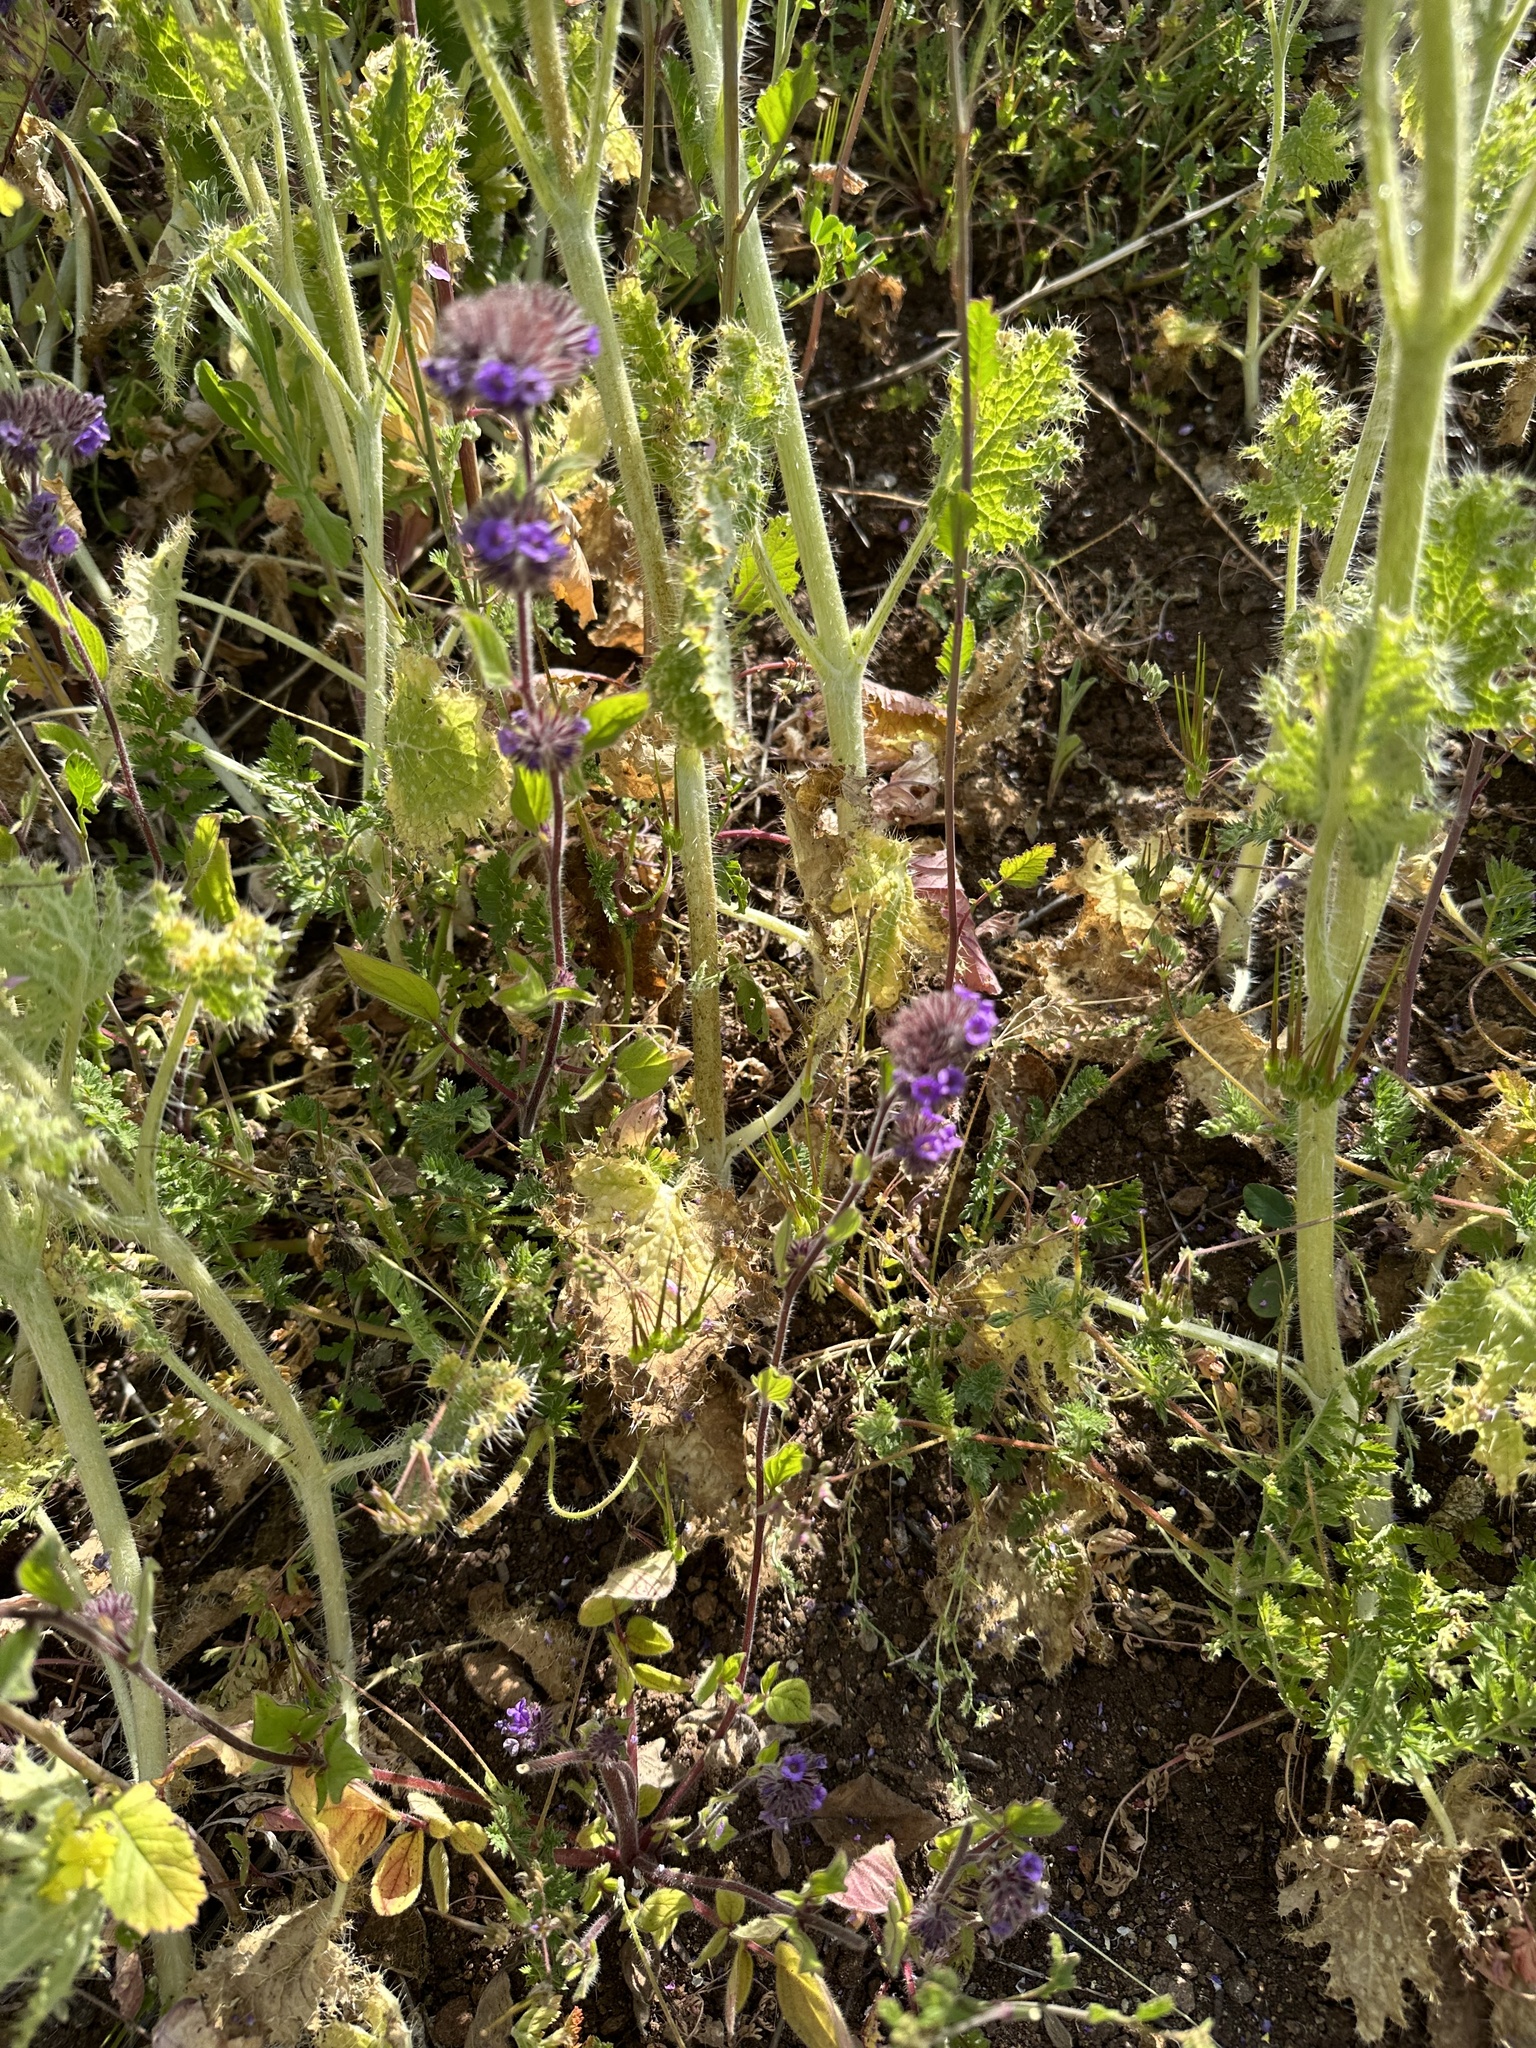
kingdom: Plantae
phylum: Tracheophyta
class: Magnoliopsida
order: Boraginales
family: Hydrophyllaceae
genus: Phacelia
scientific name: Phacelia brachyantha
